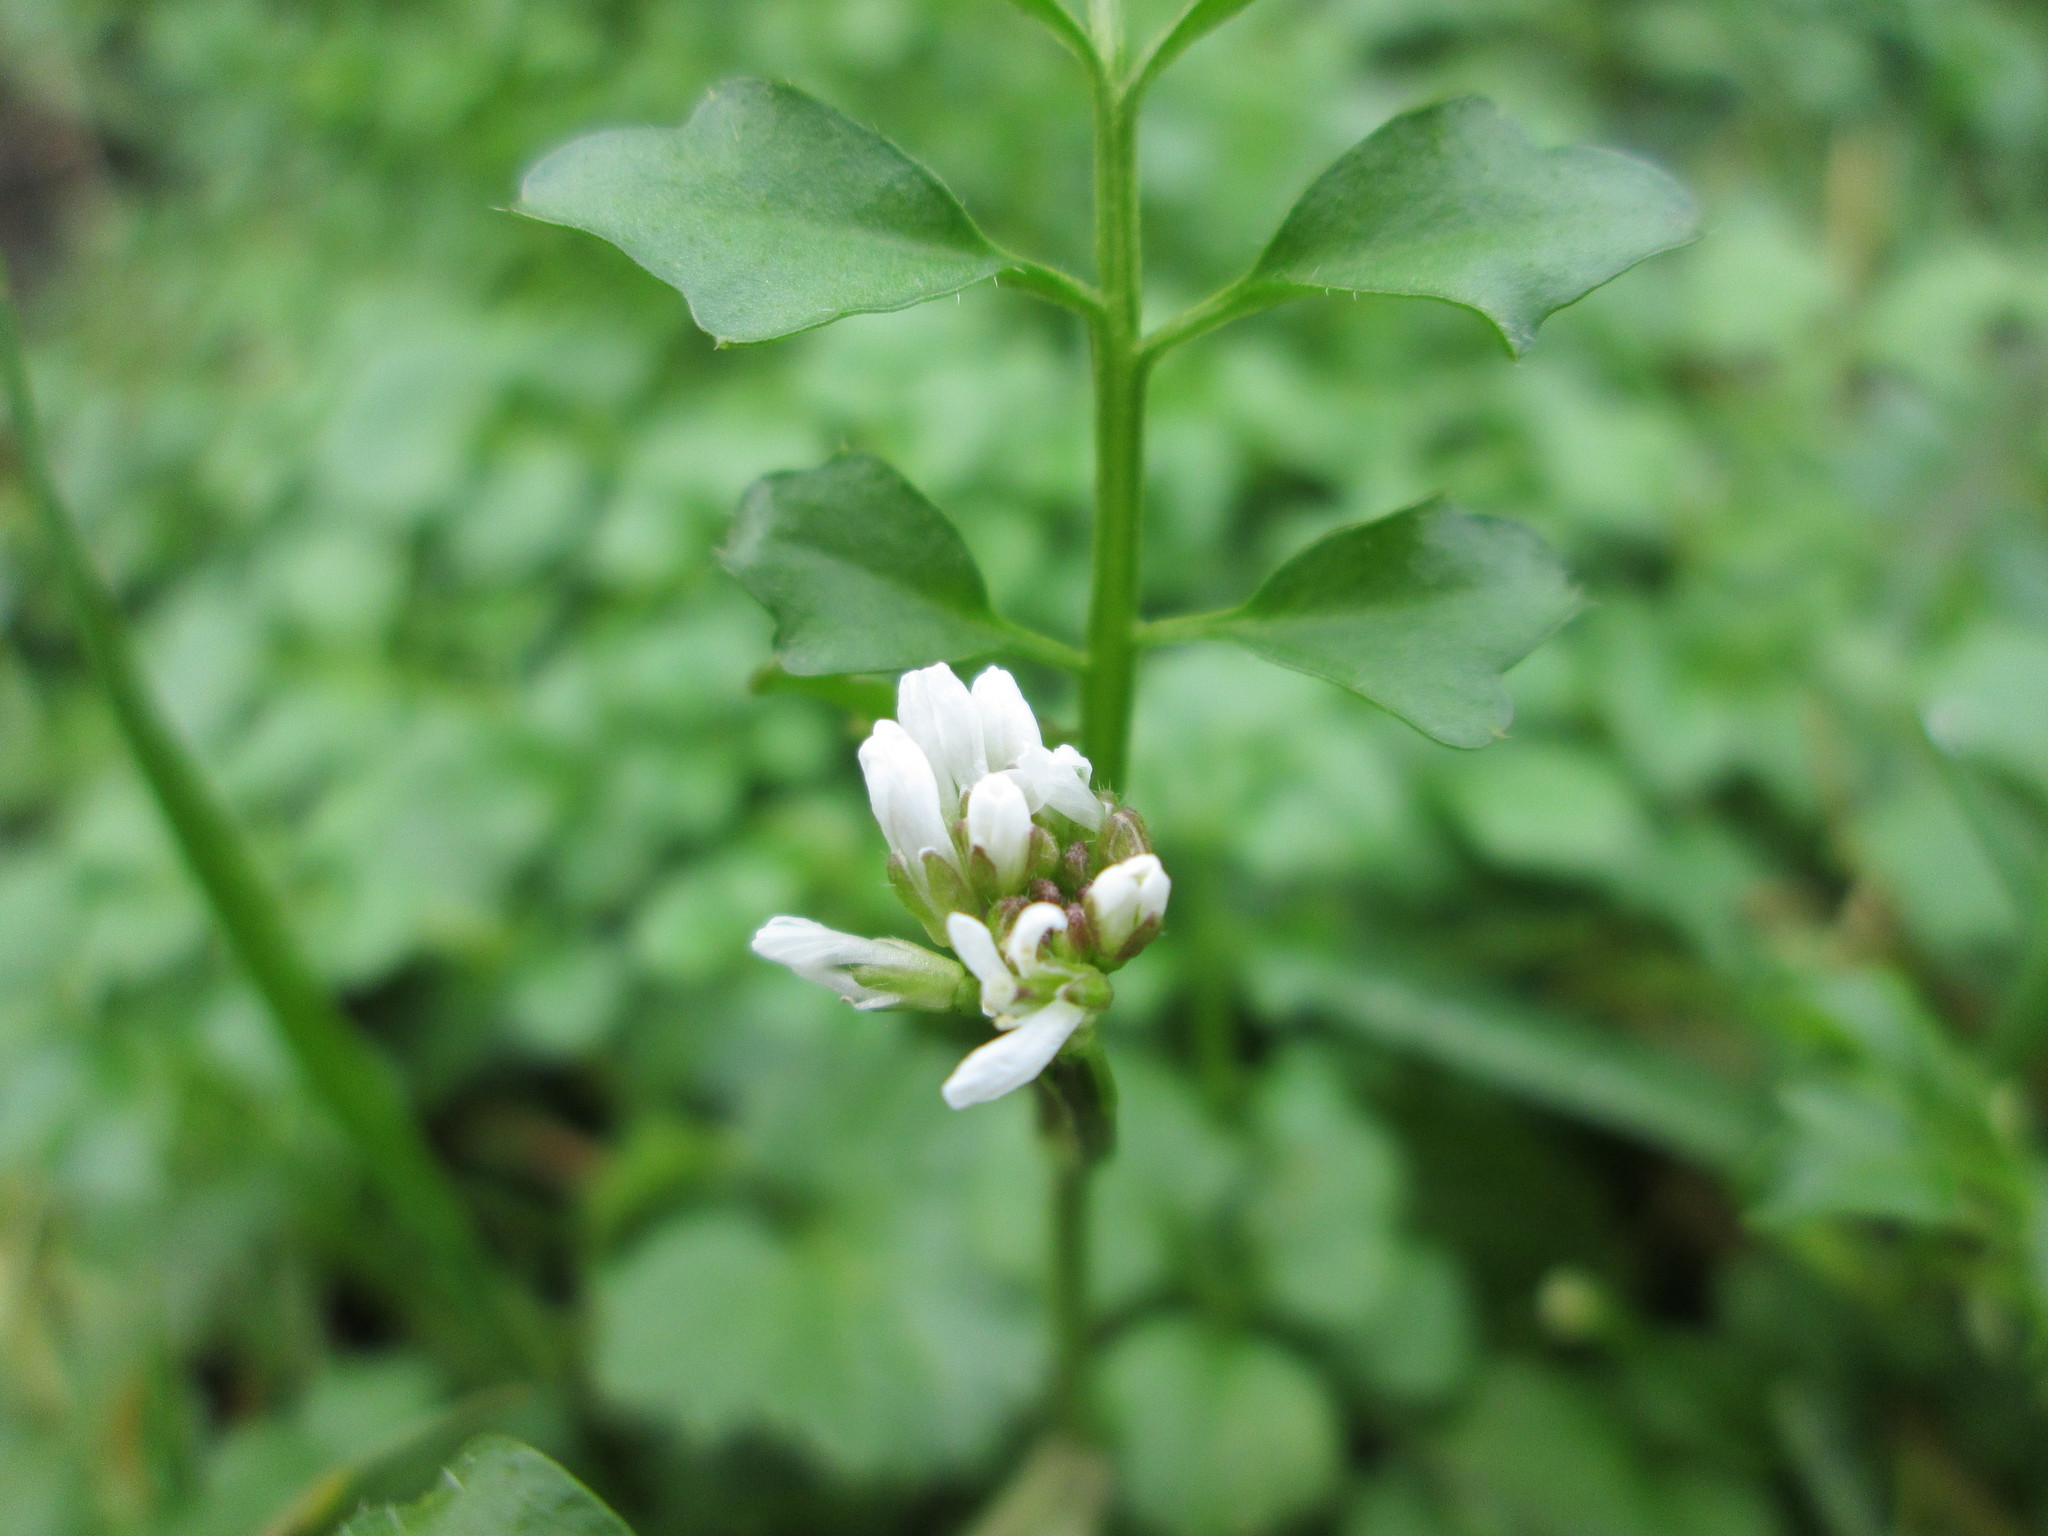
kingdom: Plantae
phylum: Tracheophyta
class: Magnoliopsida
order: Brassicales
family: Brassicaceae
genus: Cardamine
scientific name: Cardamine hirsuta
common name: Hairy bittercress
